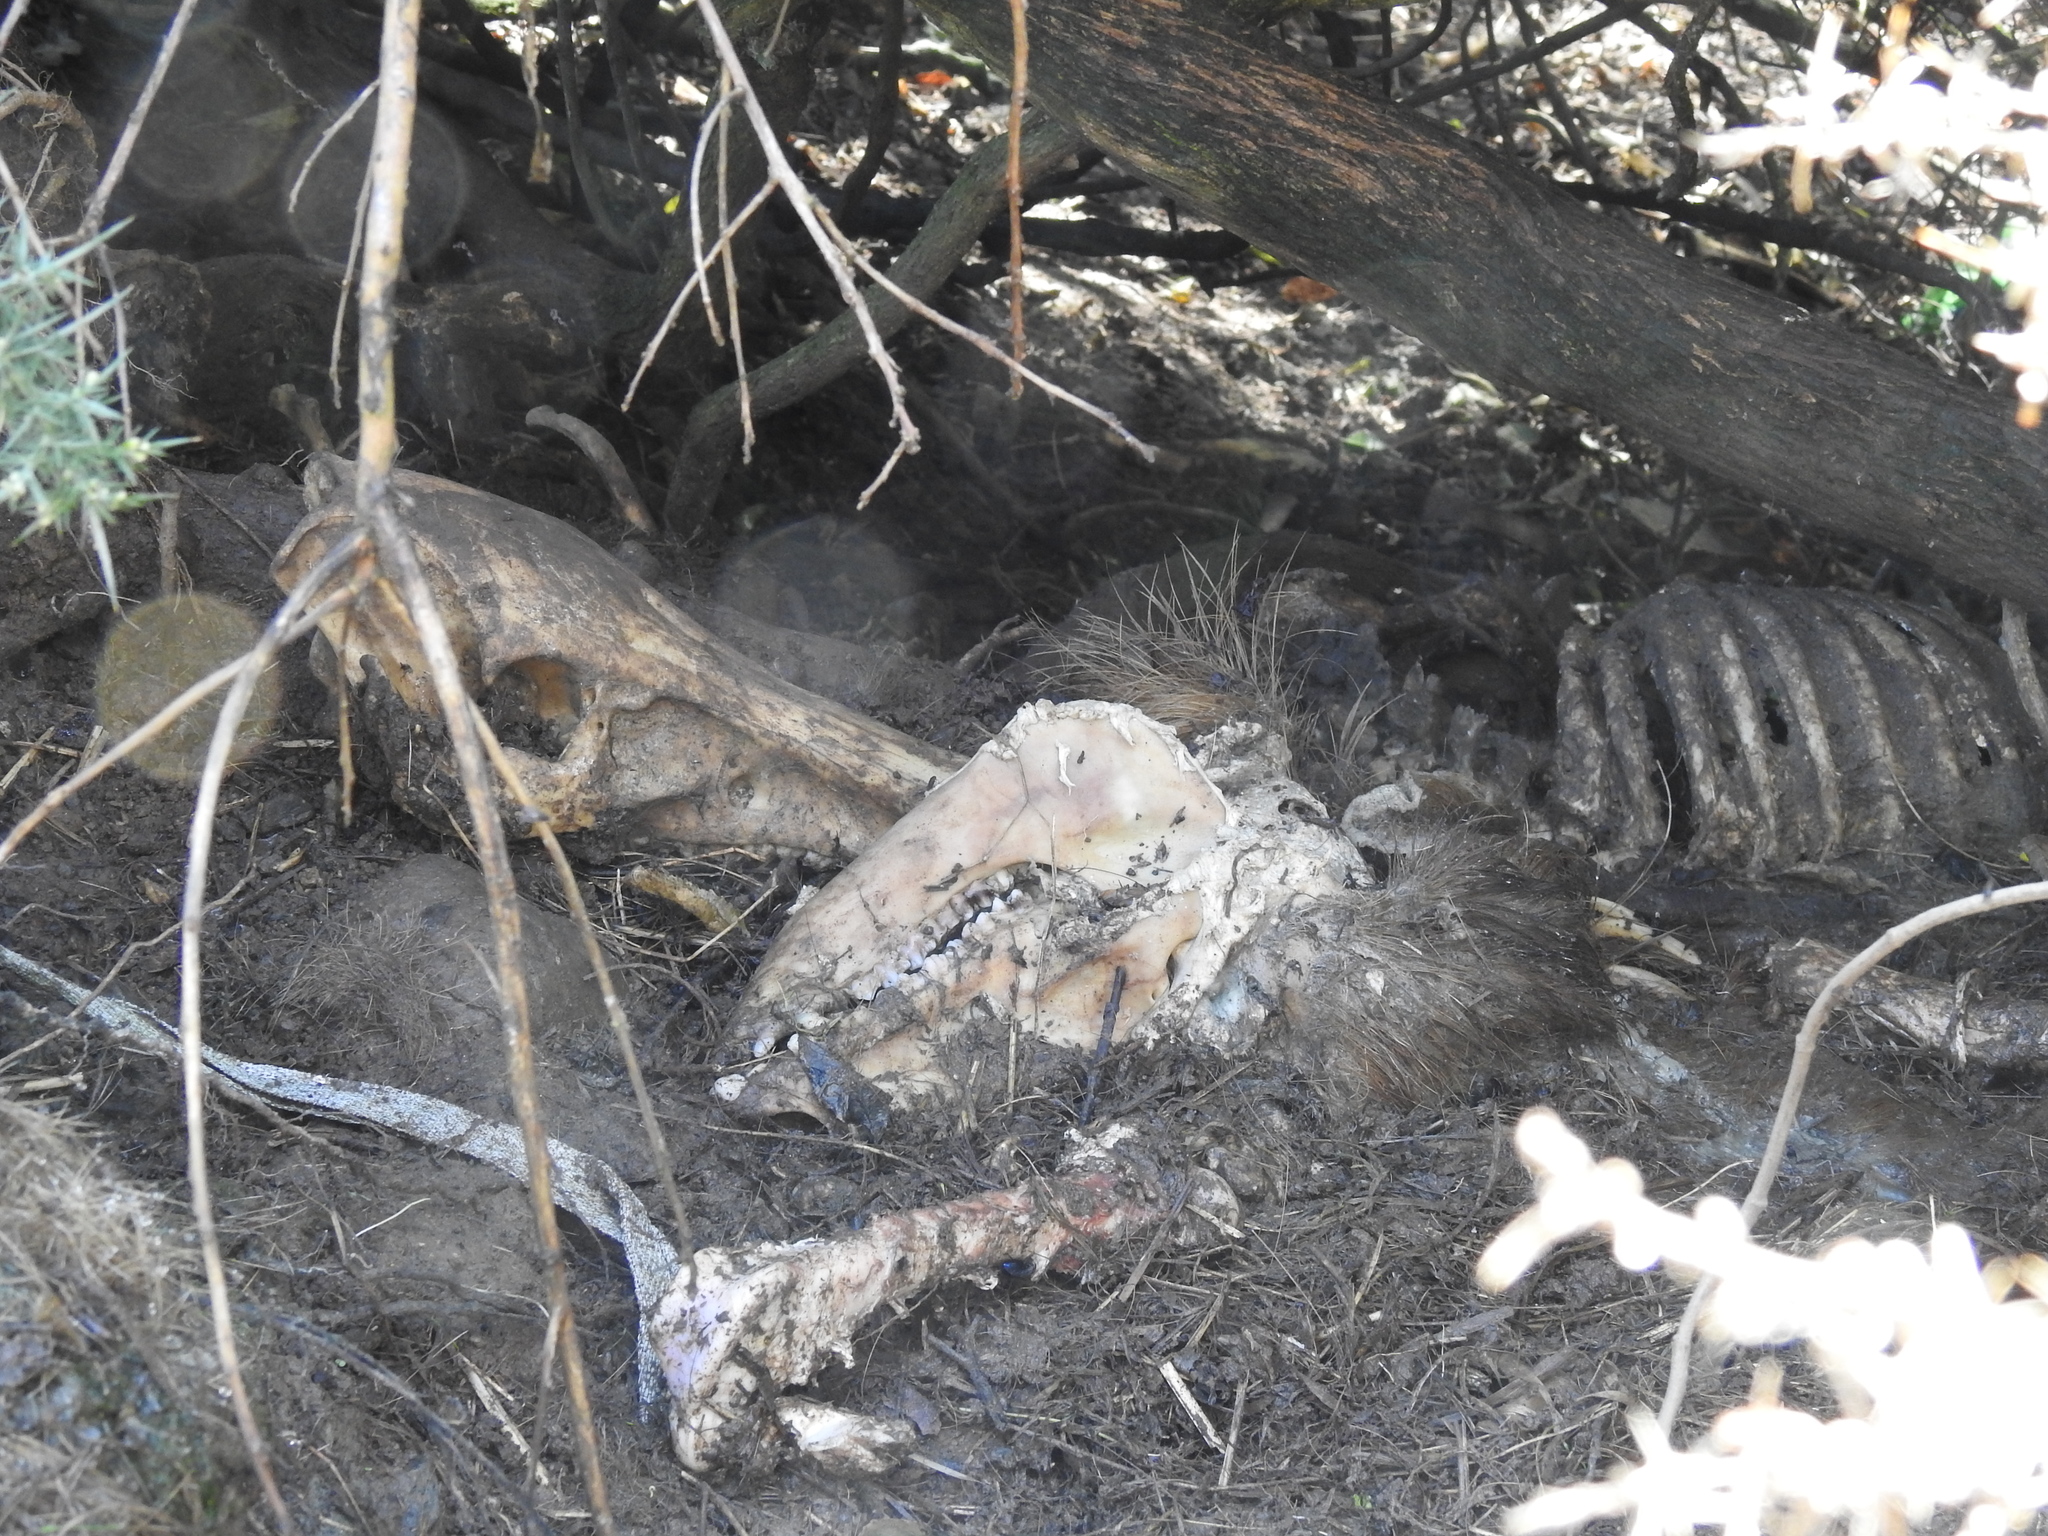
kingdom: Animalia
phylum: Chordata
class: Mammalia
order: Artiodactyla
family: Suidae
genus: Sus
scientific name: Sus scrofa
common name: Wild boar
